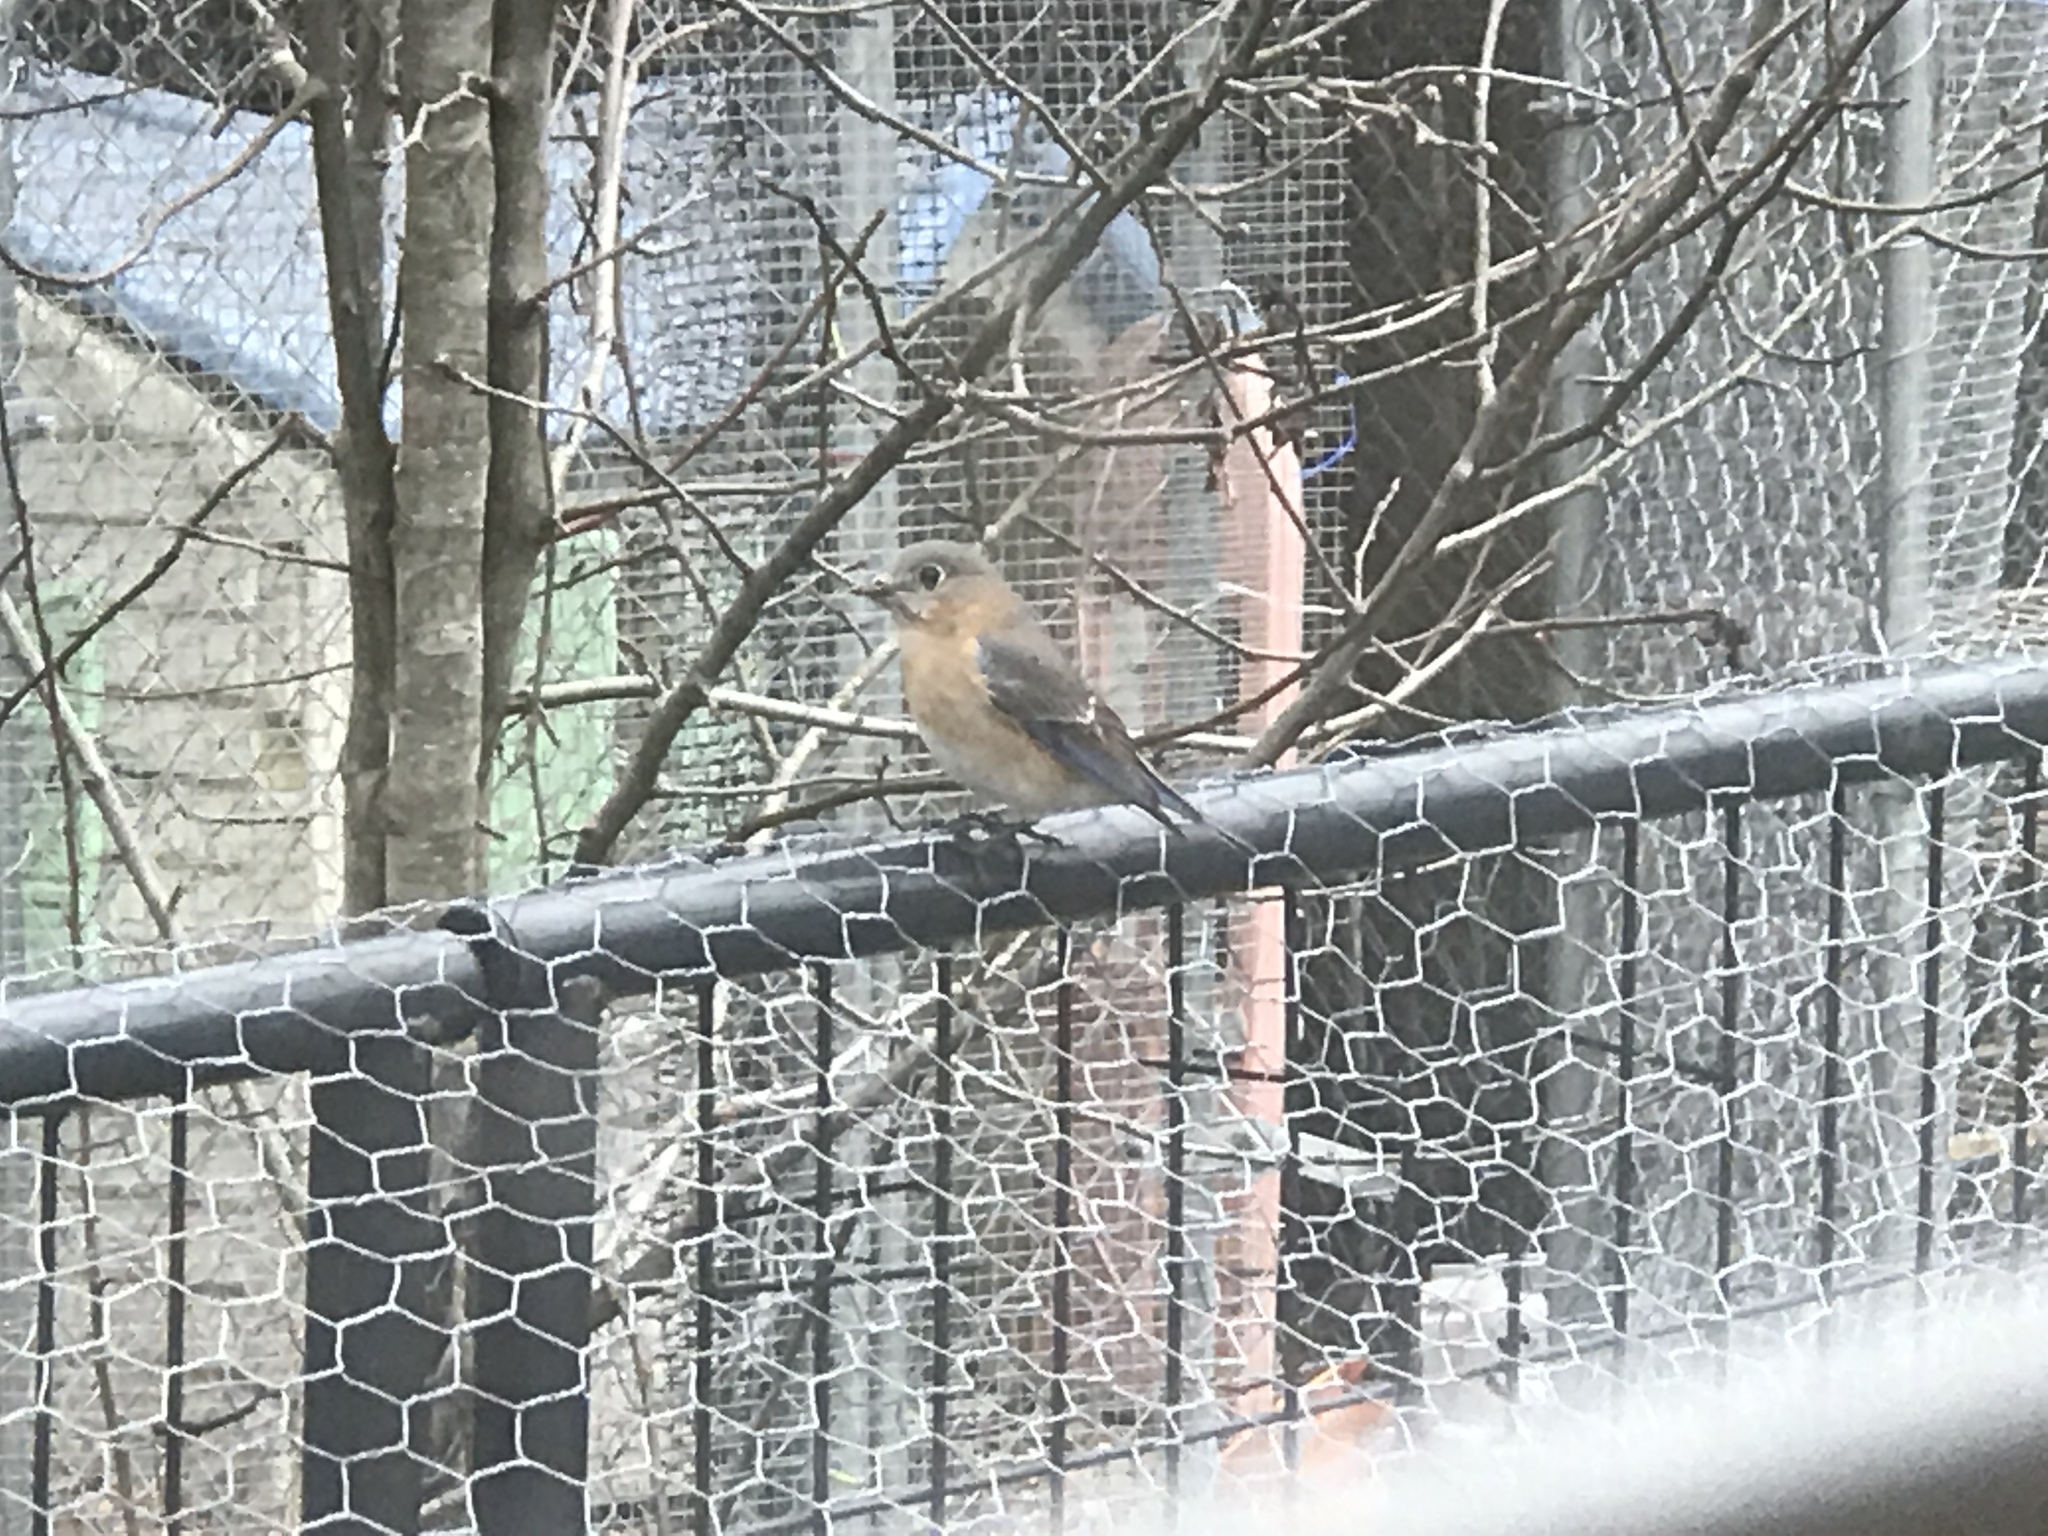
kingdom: Animalia
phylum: Chordata
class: Aves
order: Passeriformes
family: Turdidae
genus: Sialia
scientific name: Sialia sialis
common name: Eastern bluebird
